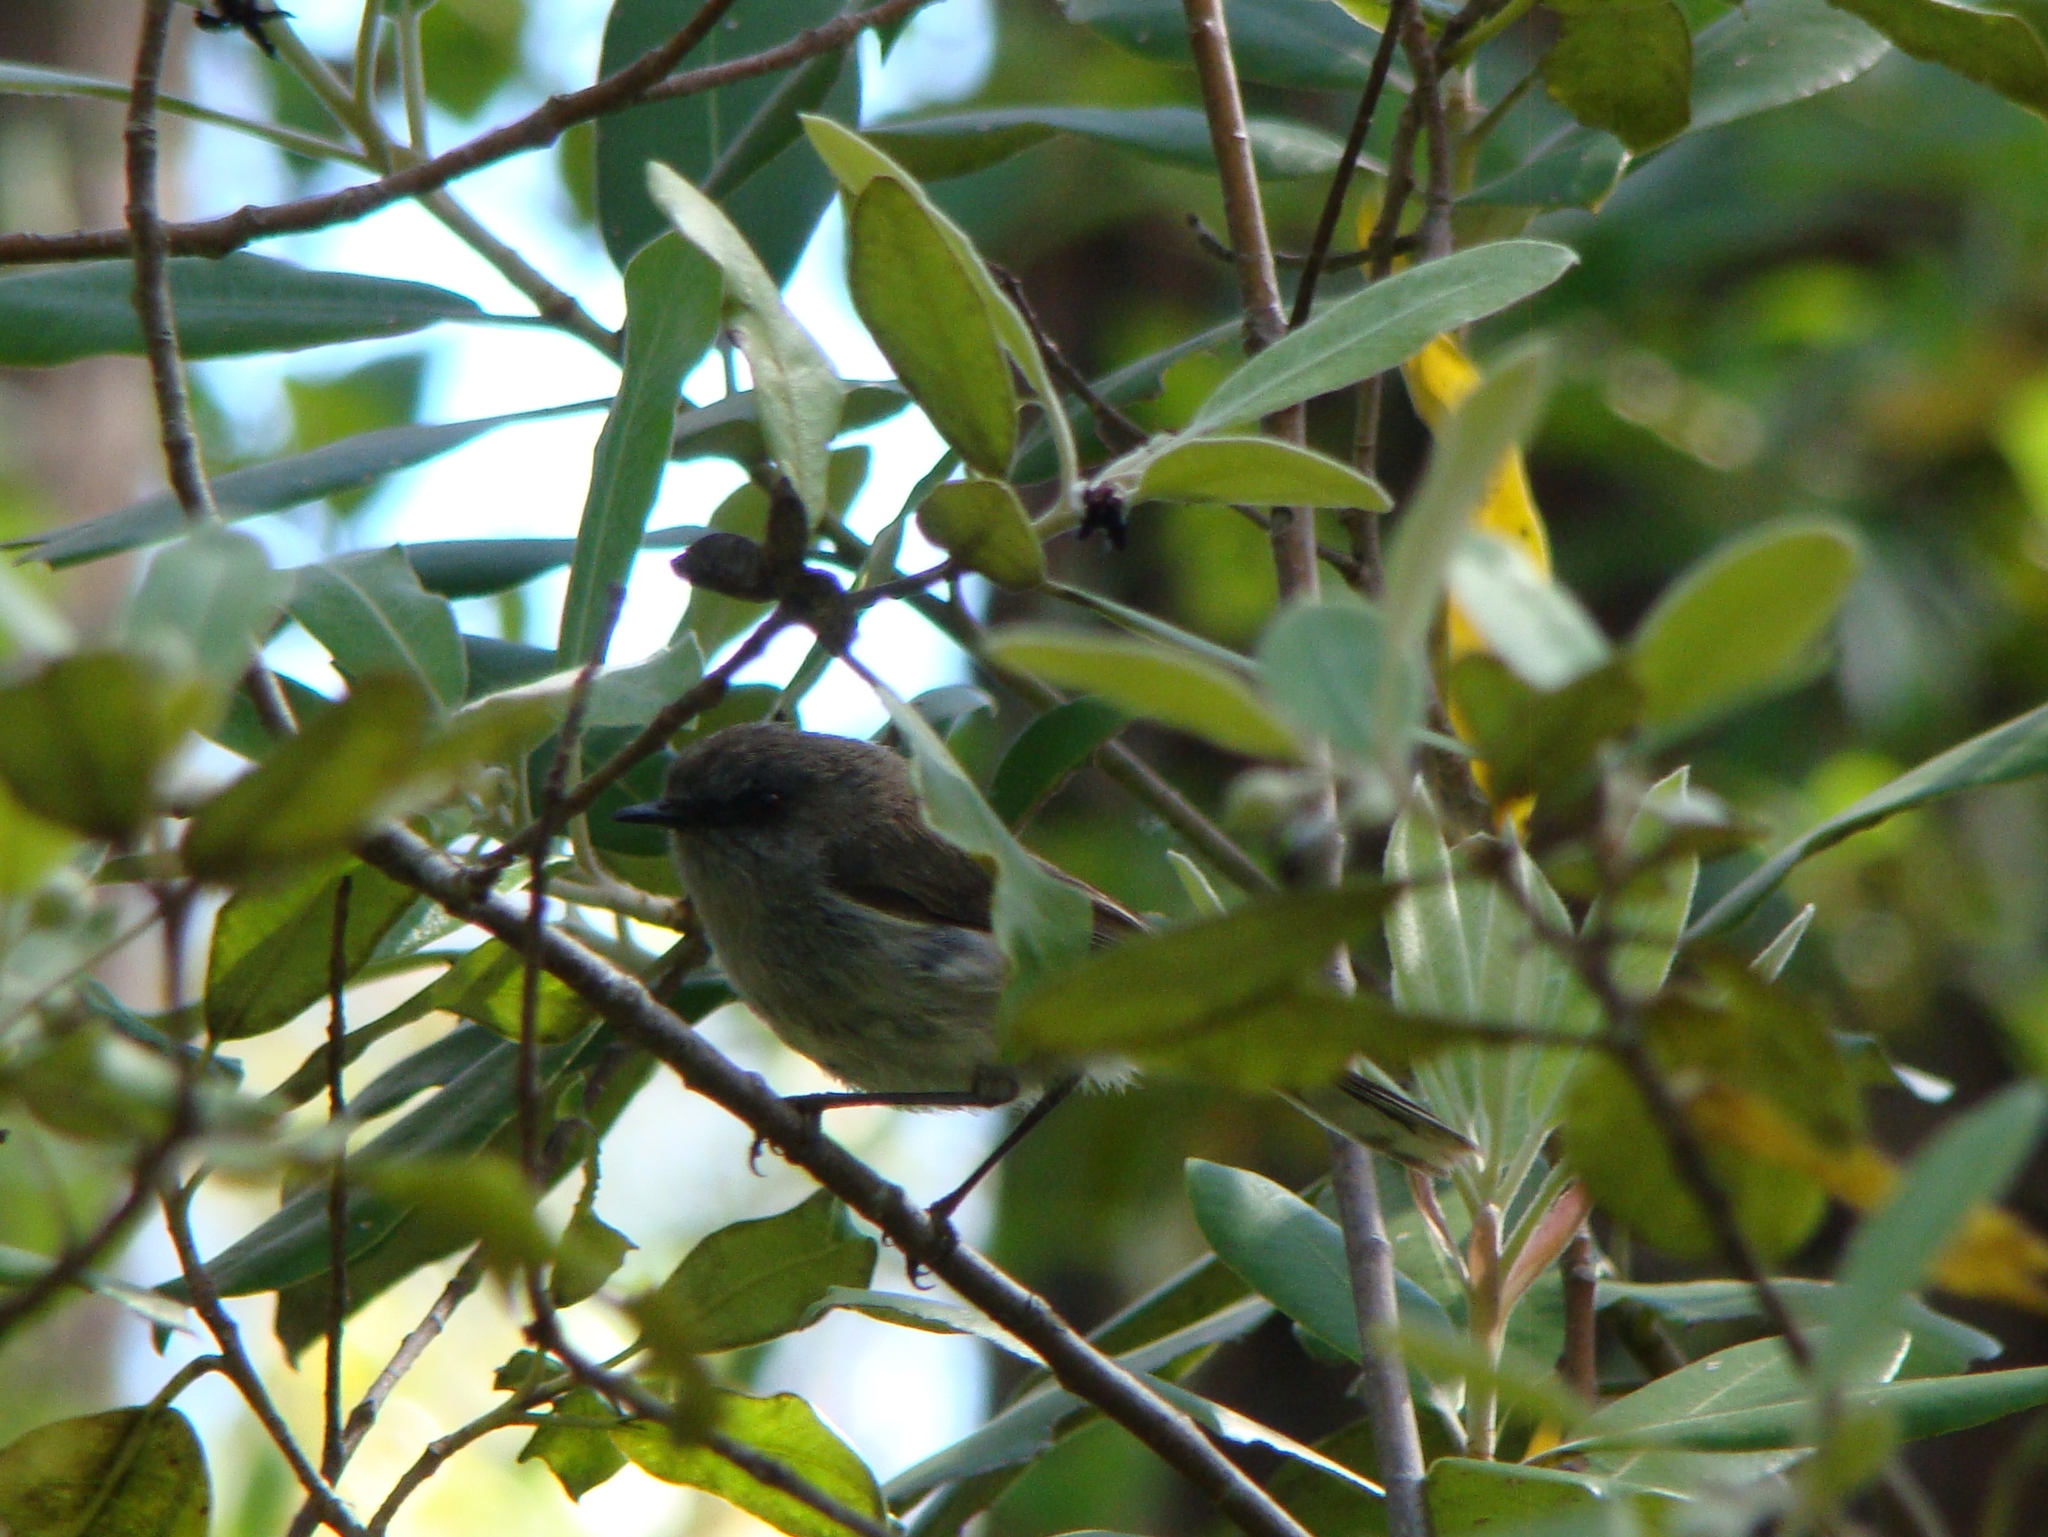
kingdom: Animalia
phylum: Chordata
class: Aves
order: Passeriformes
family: Acanthizidae
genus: Gerygone
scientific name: Gerygone igata
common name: Grey gerygone
